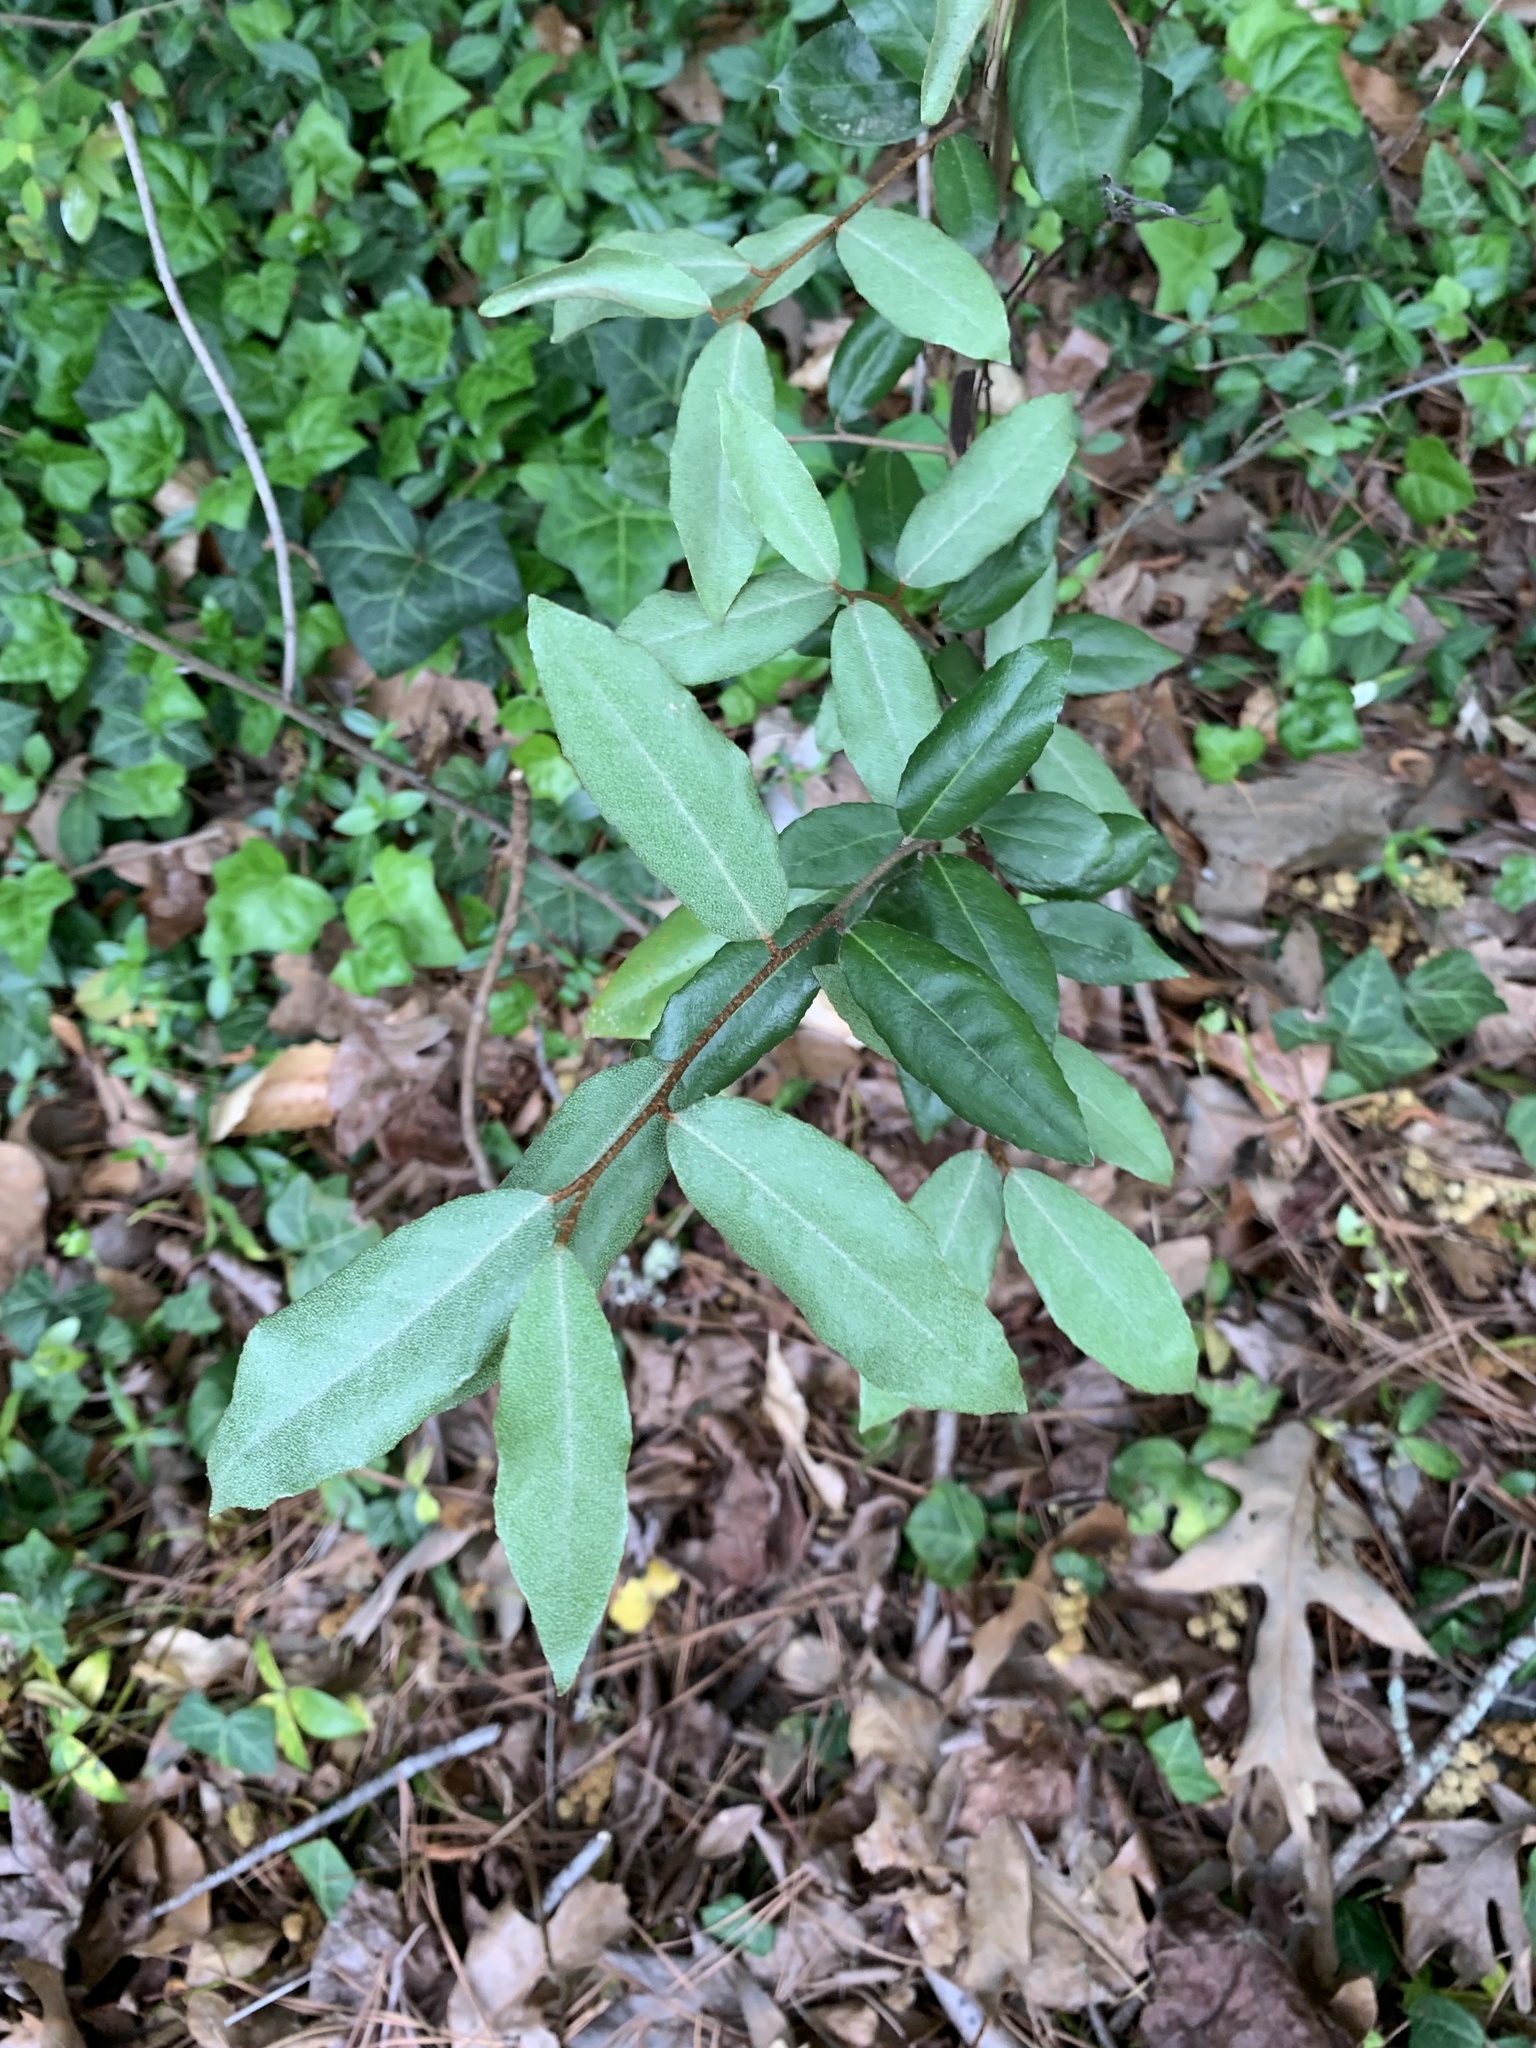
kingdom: Plantae
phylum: Tracheophyta
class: Magnoliopsida
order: Rosales
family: Elaeagnaceae
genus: Elaeagnus
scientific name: Elaeagnus pungens
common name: Spiny oleaster
